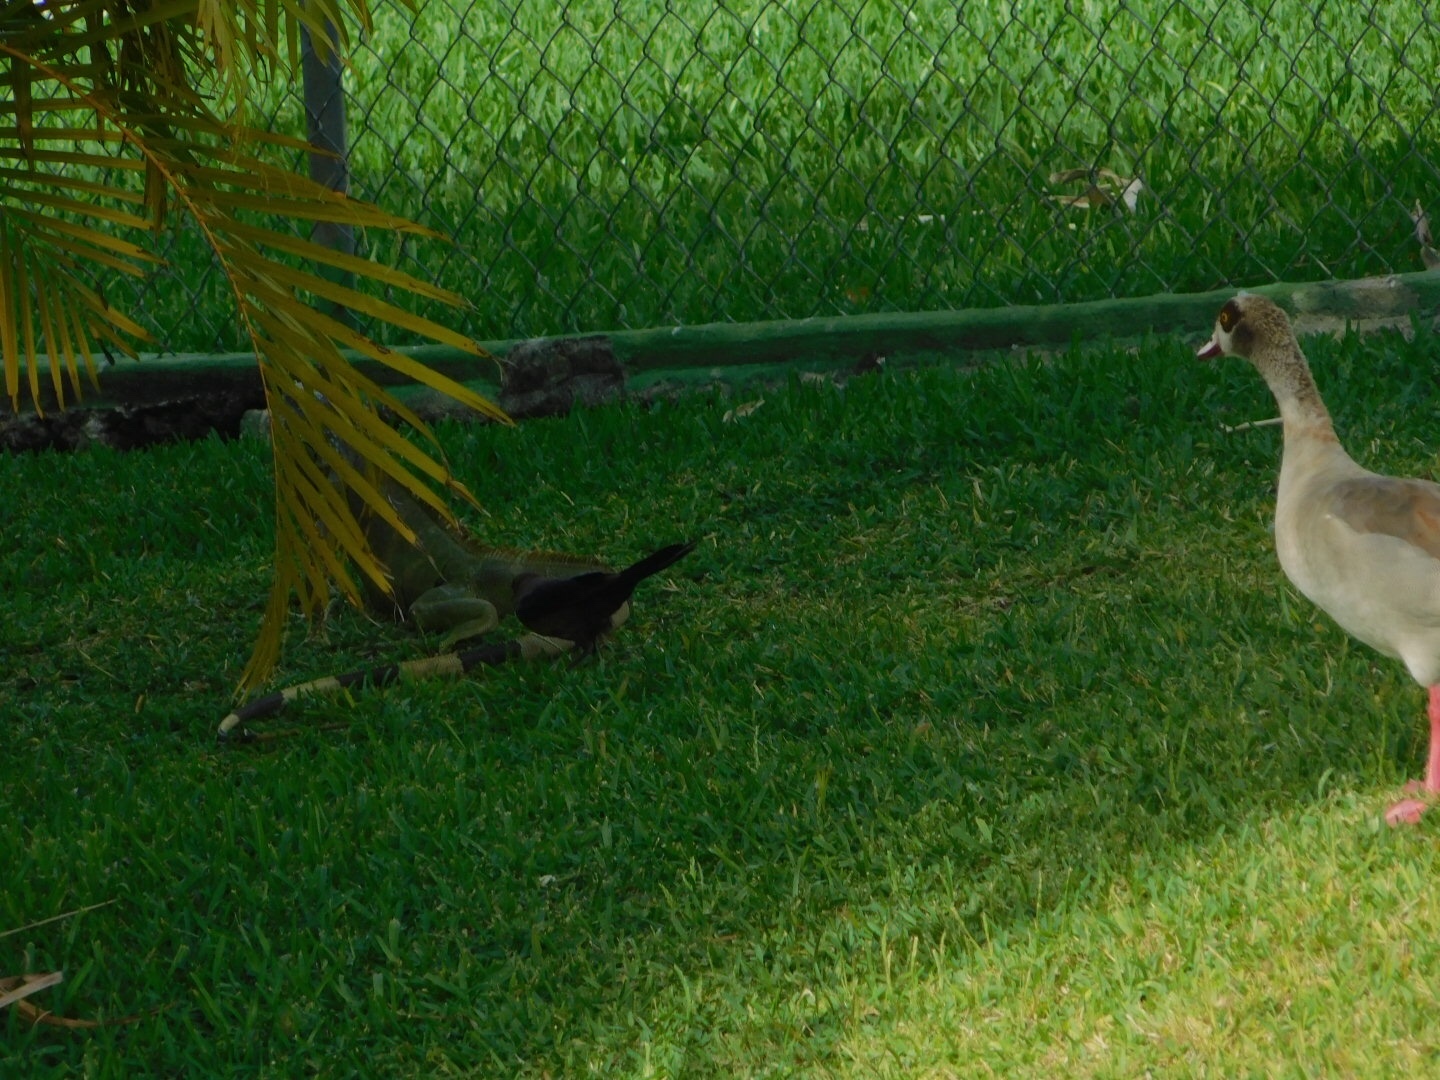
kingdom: Animalia
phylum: Chordata
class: Aves
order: Passeriformes
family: Icteridae
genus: Quiscalus
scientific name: Quiscalus major
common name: Boat-tailed grackle
